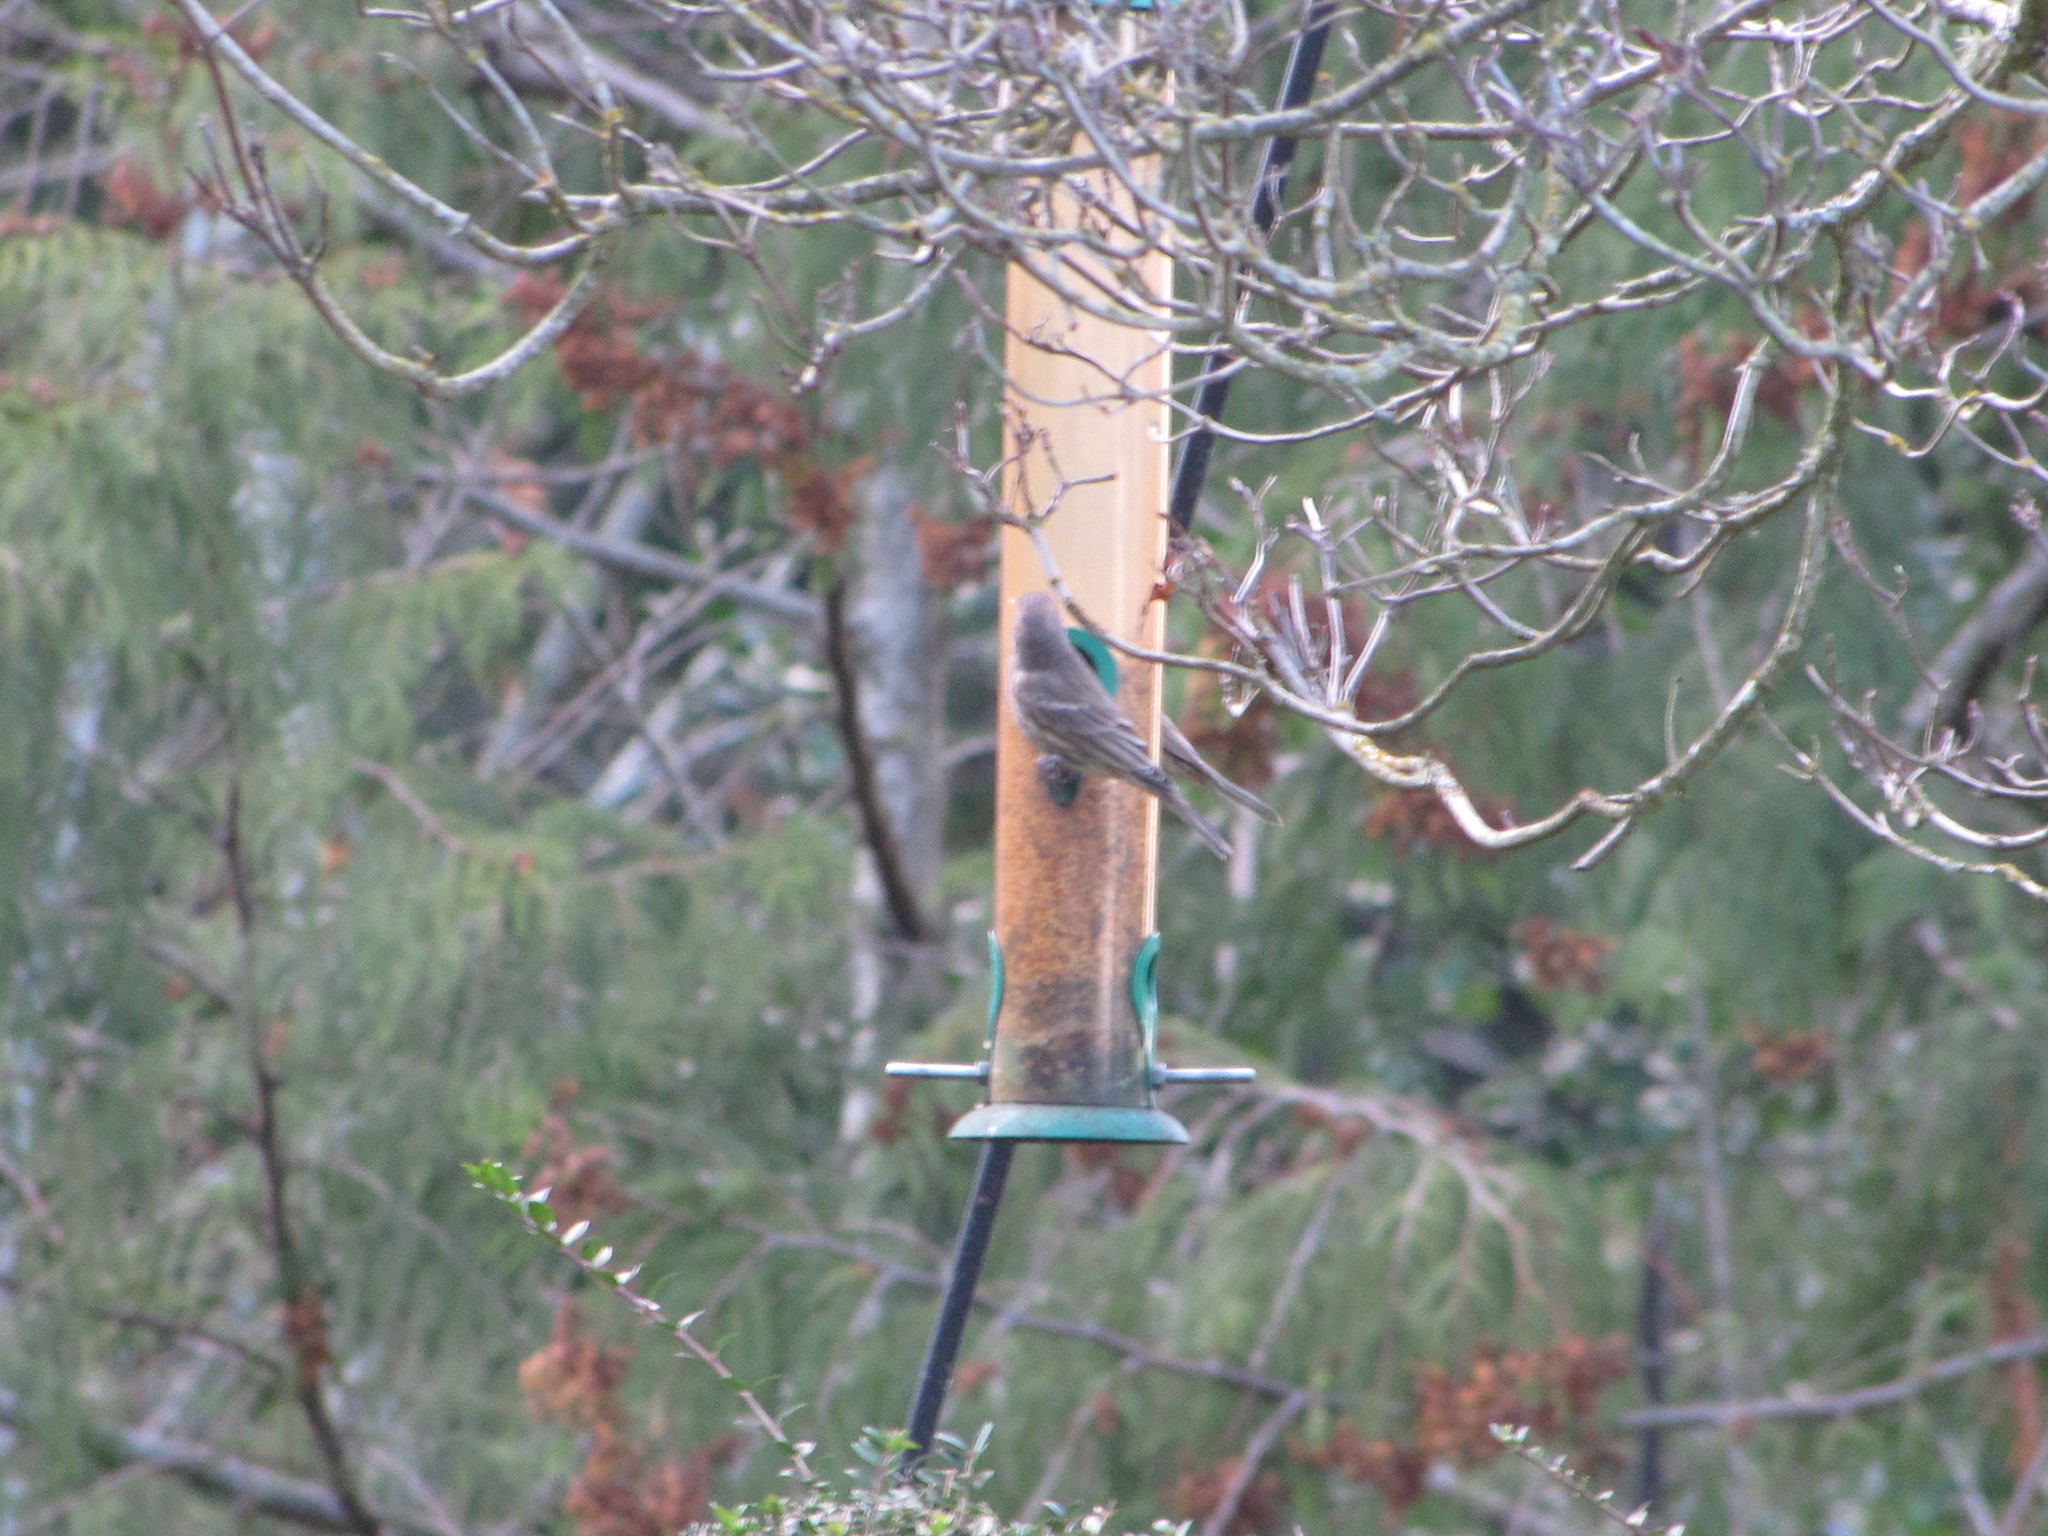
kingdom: Animalia
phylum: Chordata
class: Aves
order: Passeriformes
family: Fringillidae
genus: Haemorhous
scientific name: Haemorhous mexicanus
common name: House finch
